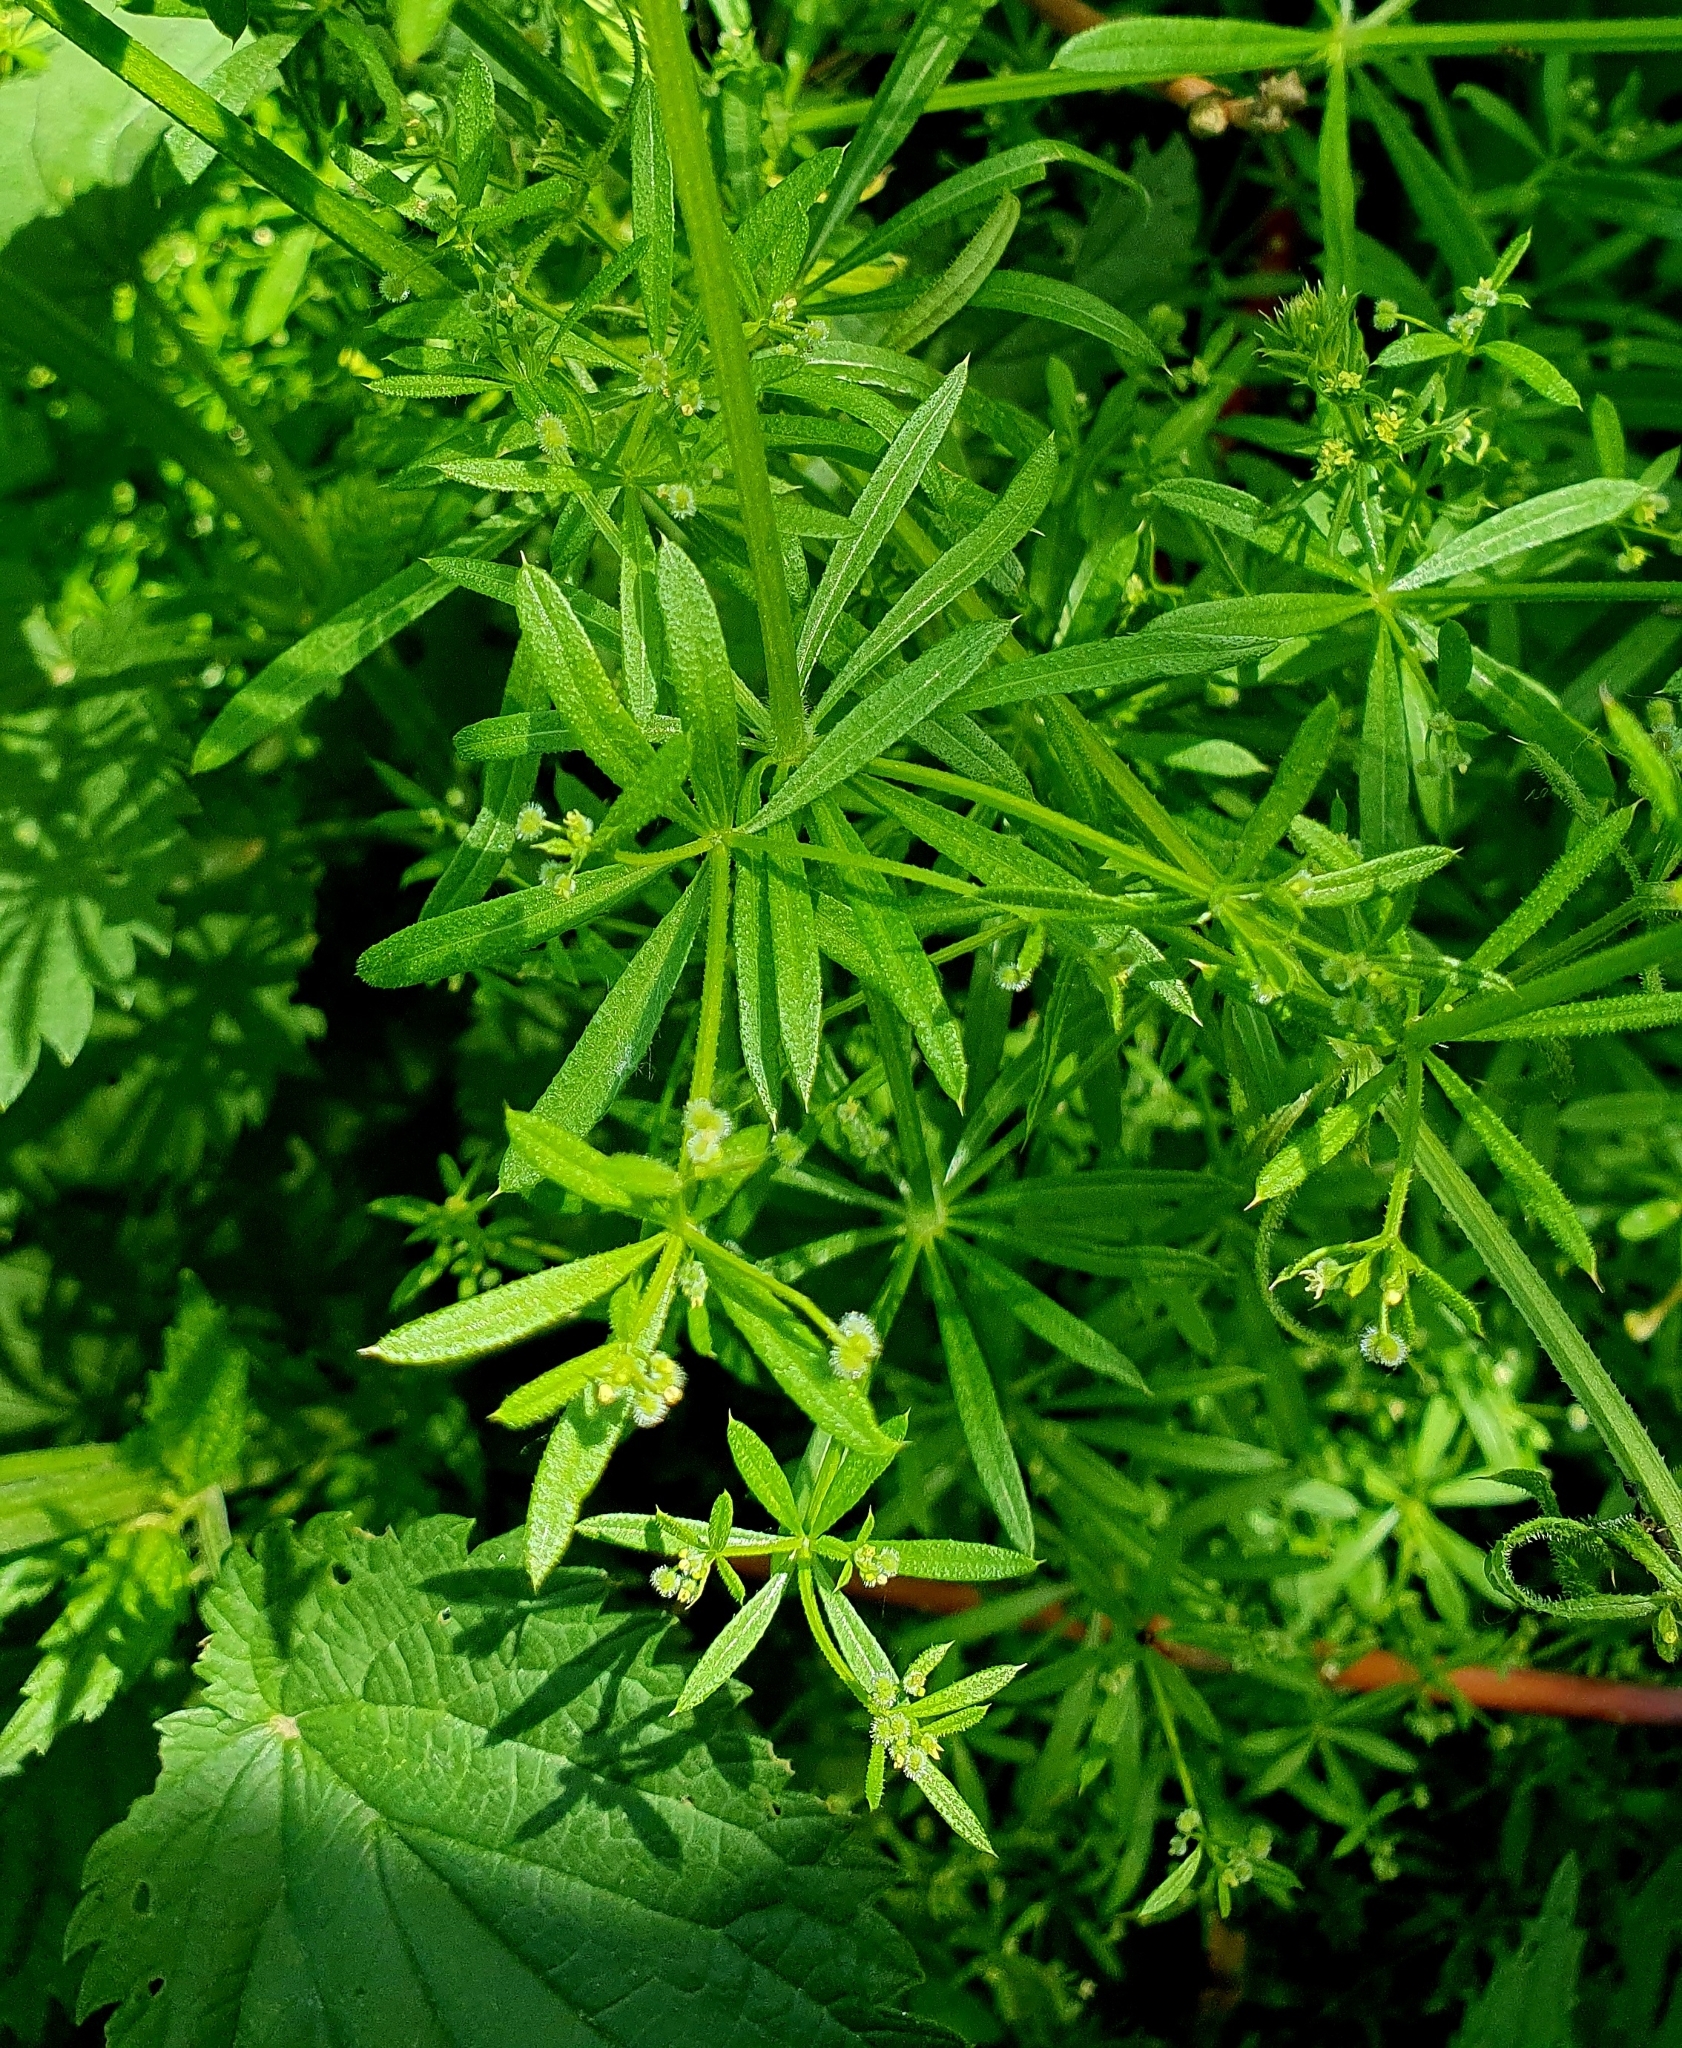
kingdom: Plantae
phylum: Tracheophyta
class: Magnoliopsida
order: Gentianales
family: Rubiaceae
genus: Galium
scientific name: Galium
